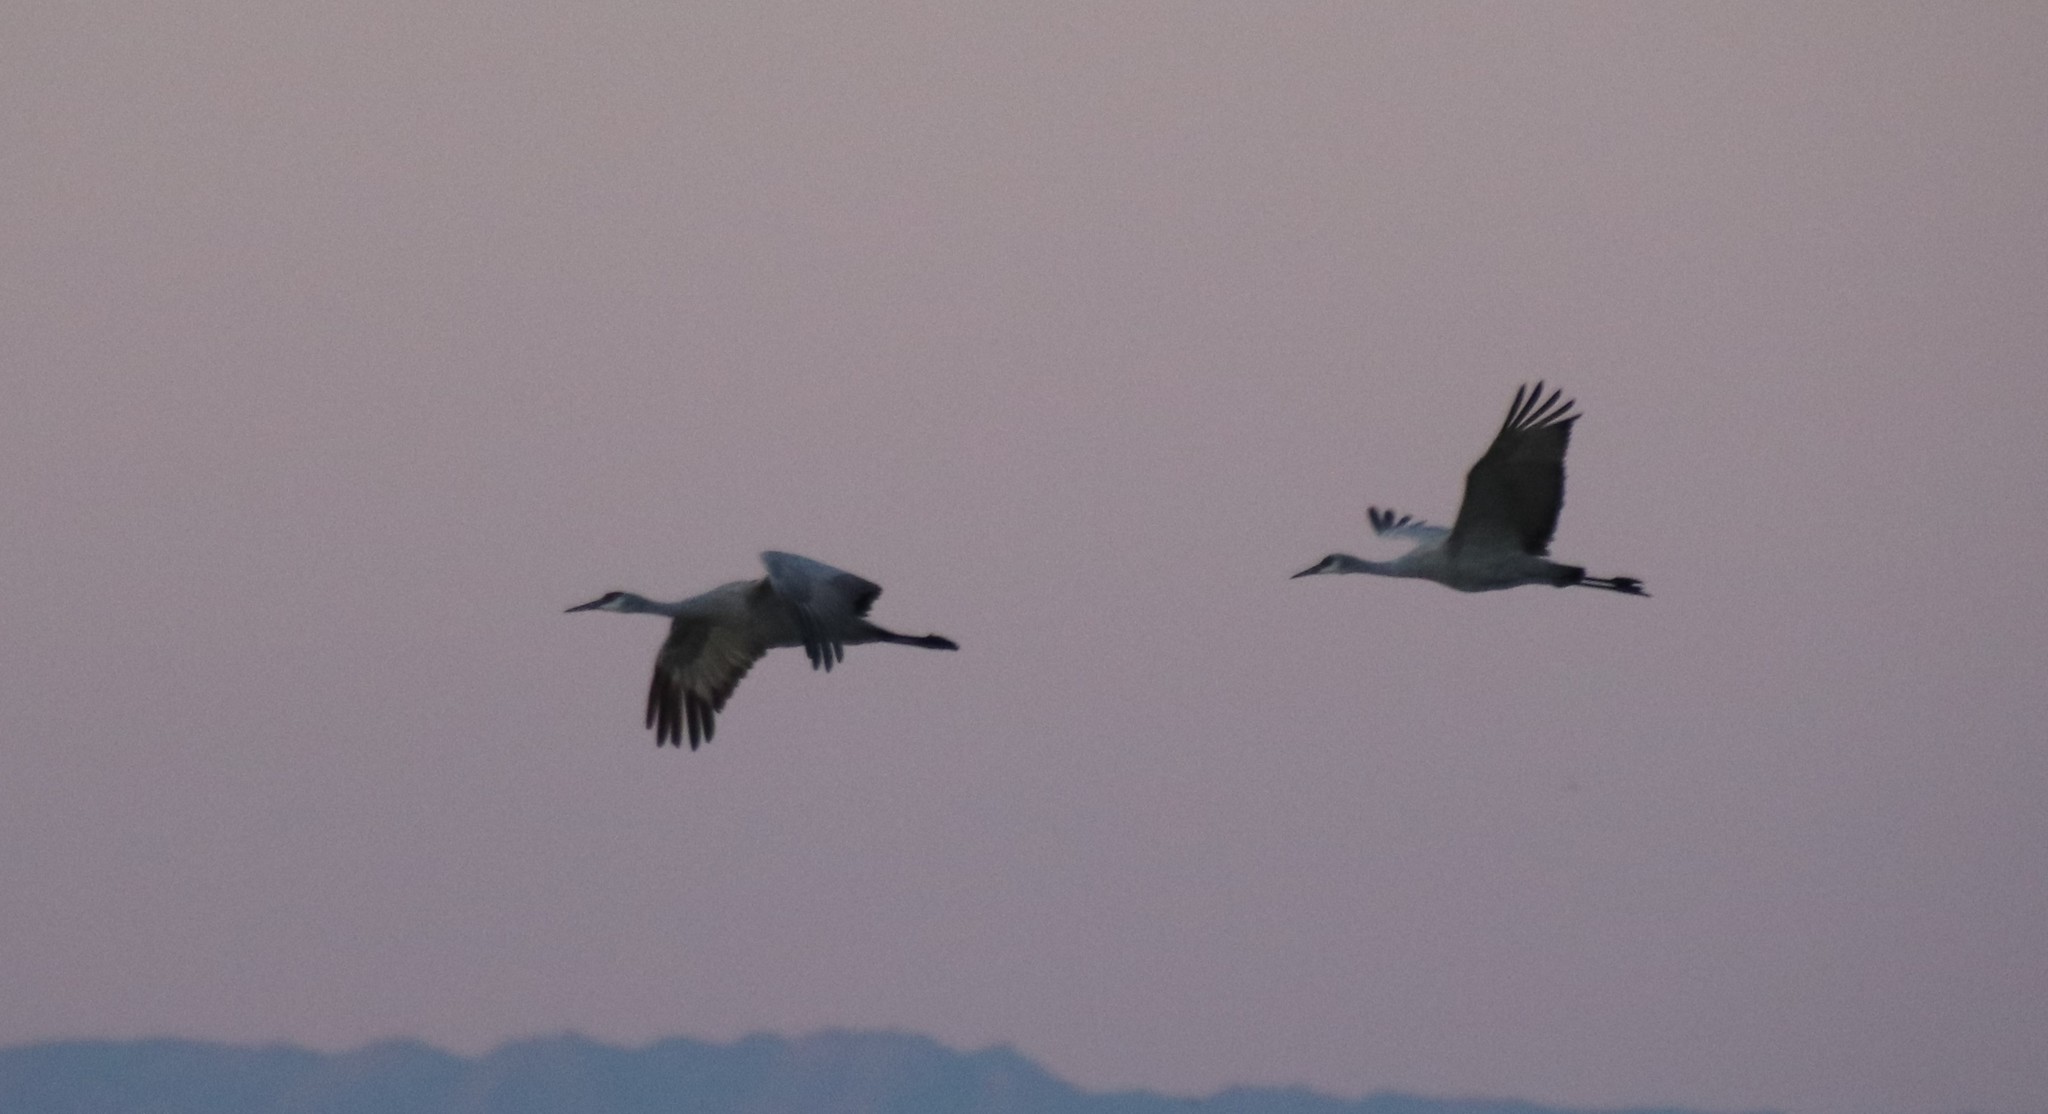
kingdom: Animalia
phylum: Chordata
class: Aves
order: Gruiformes
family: Gruidae
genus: Grus
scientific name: Grus canadensis
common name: Sandhill crane
